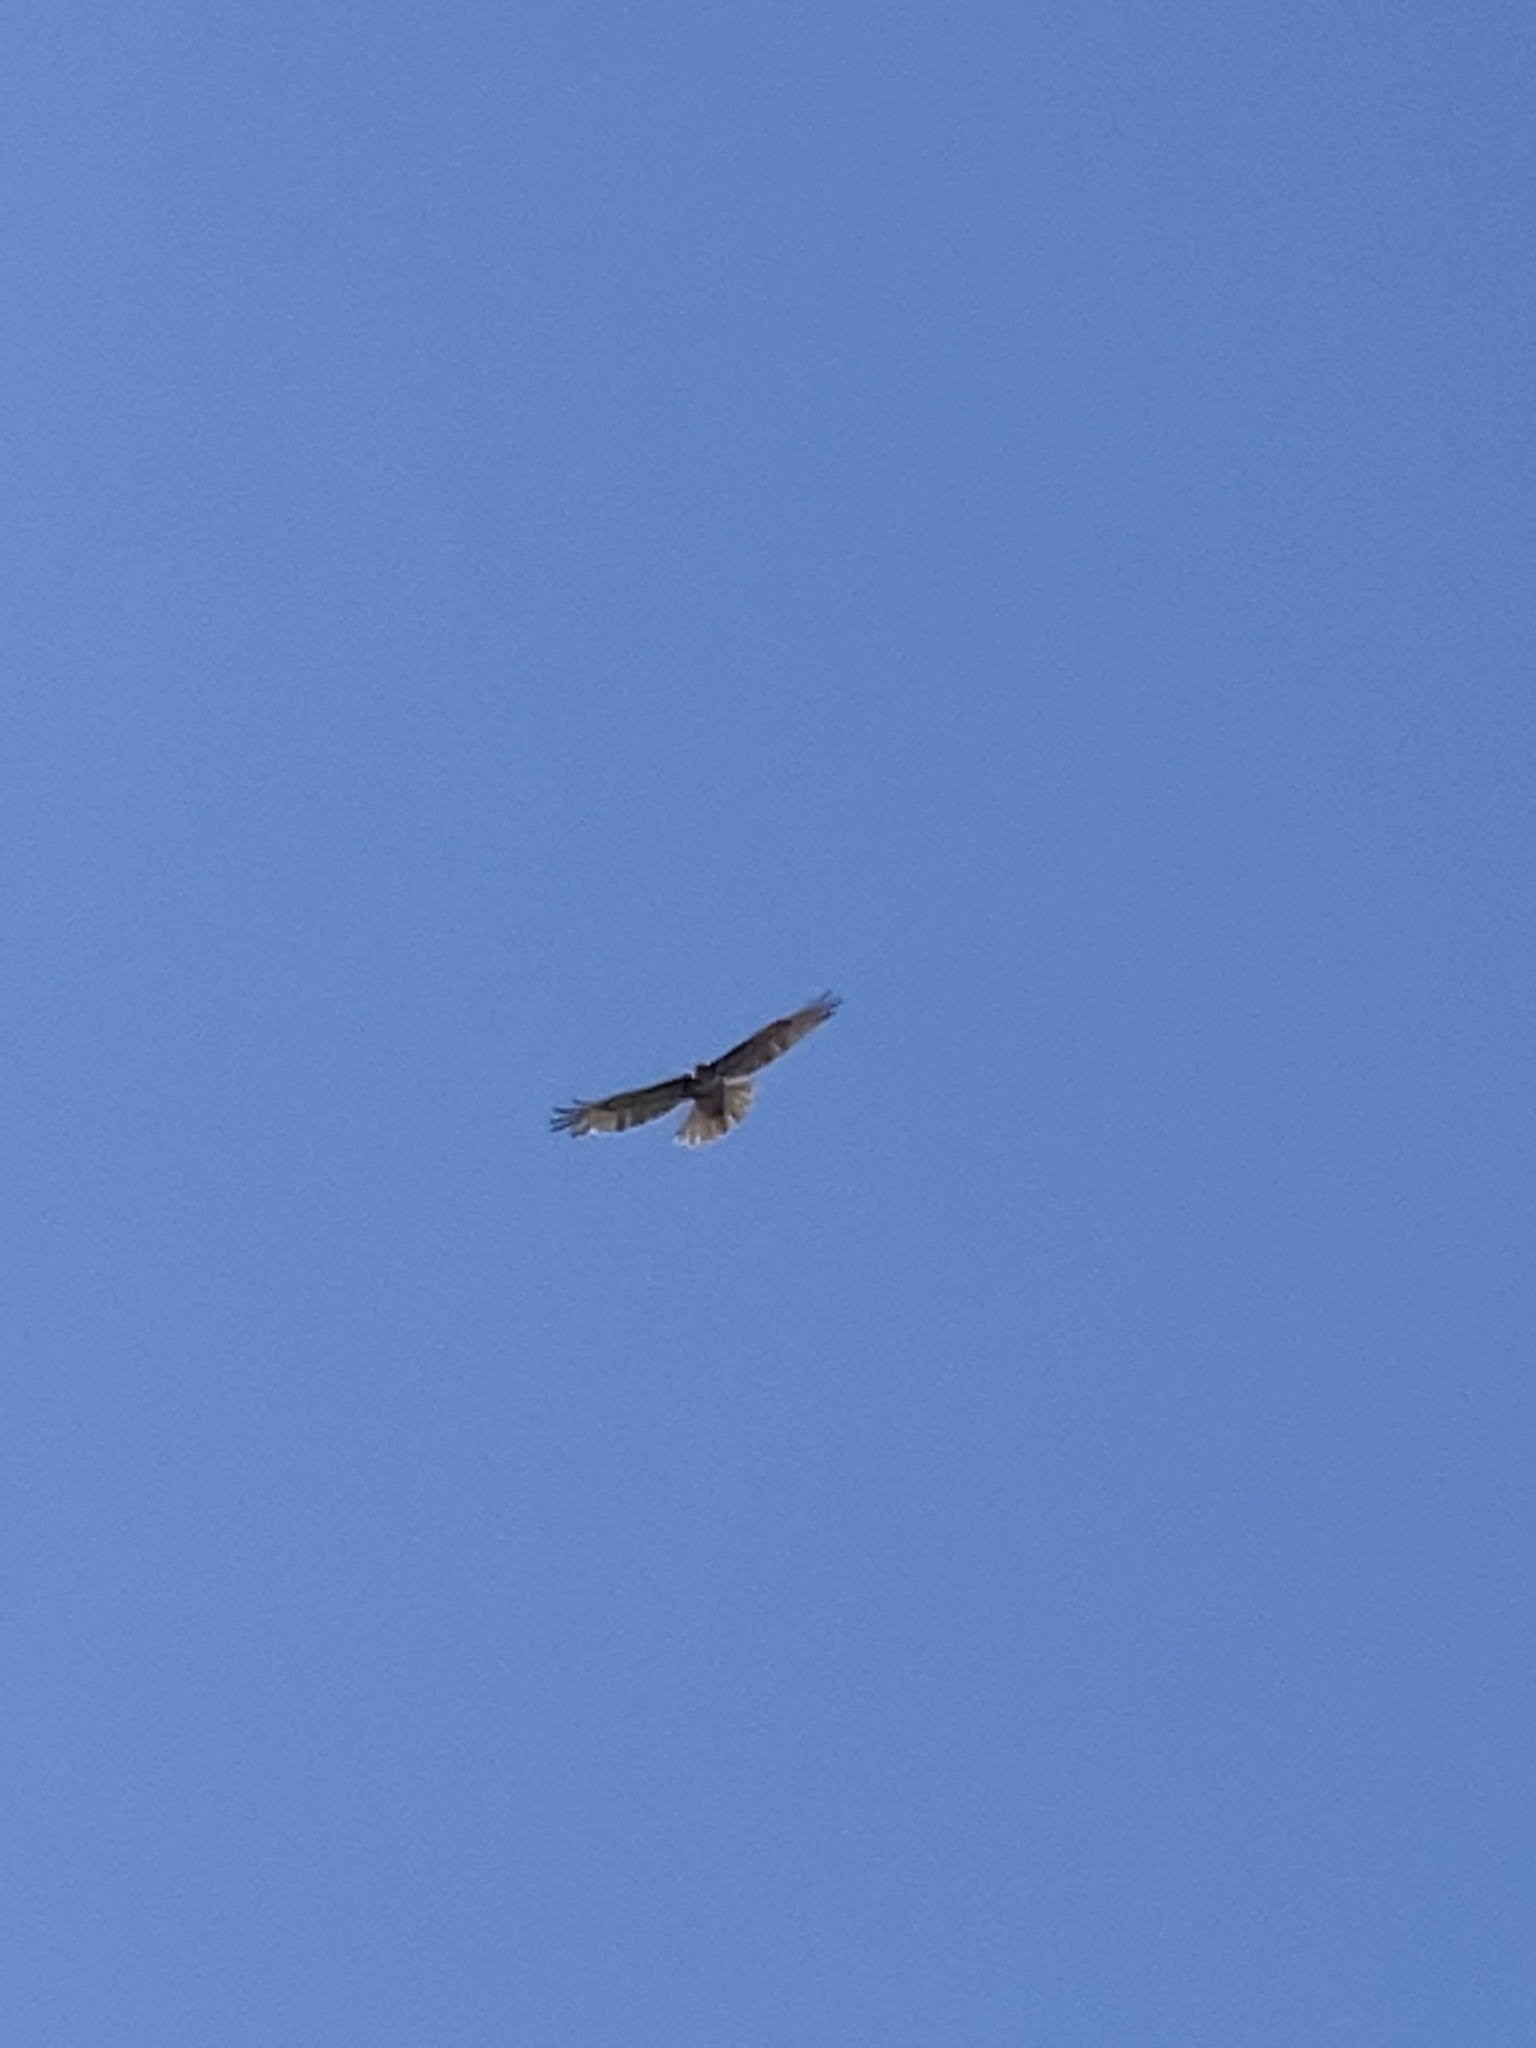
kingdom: Animalia
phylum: Chordata
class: Aves
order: Accipitriformes
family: Accipitridae
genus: Buteo
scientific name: Buteo jamaicensis
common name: Red-tailed hawk
